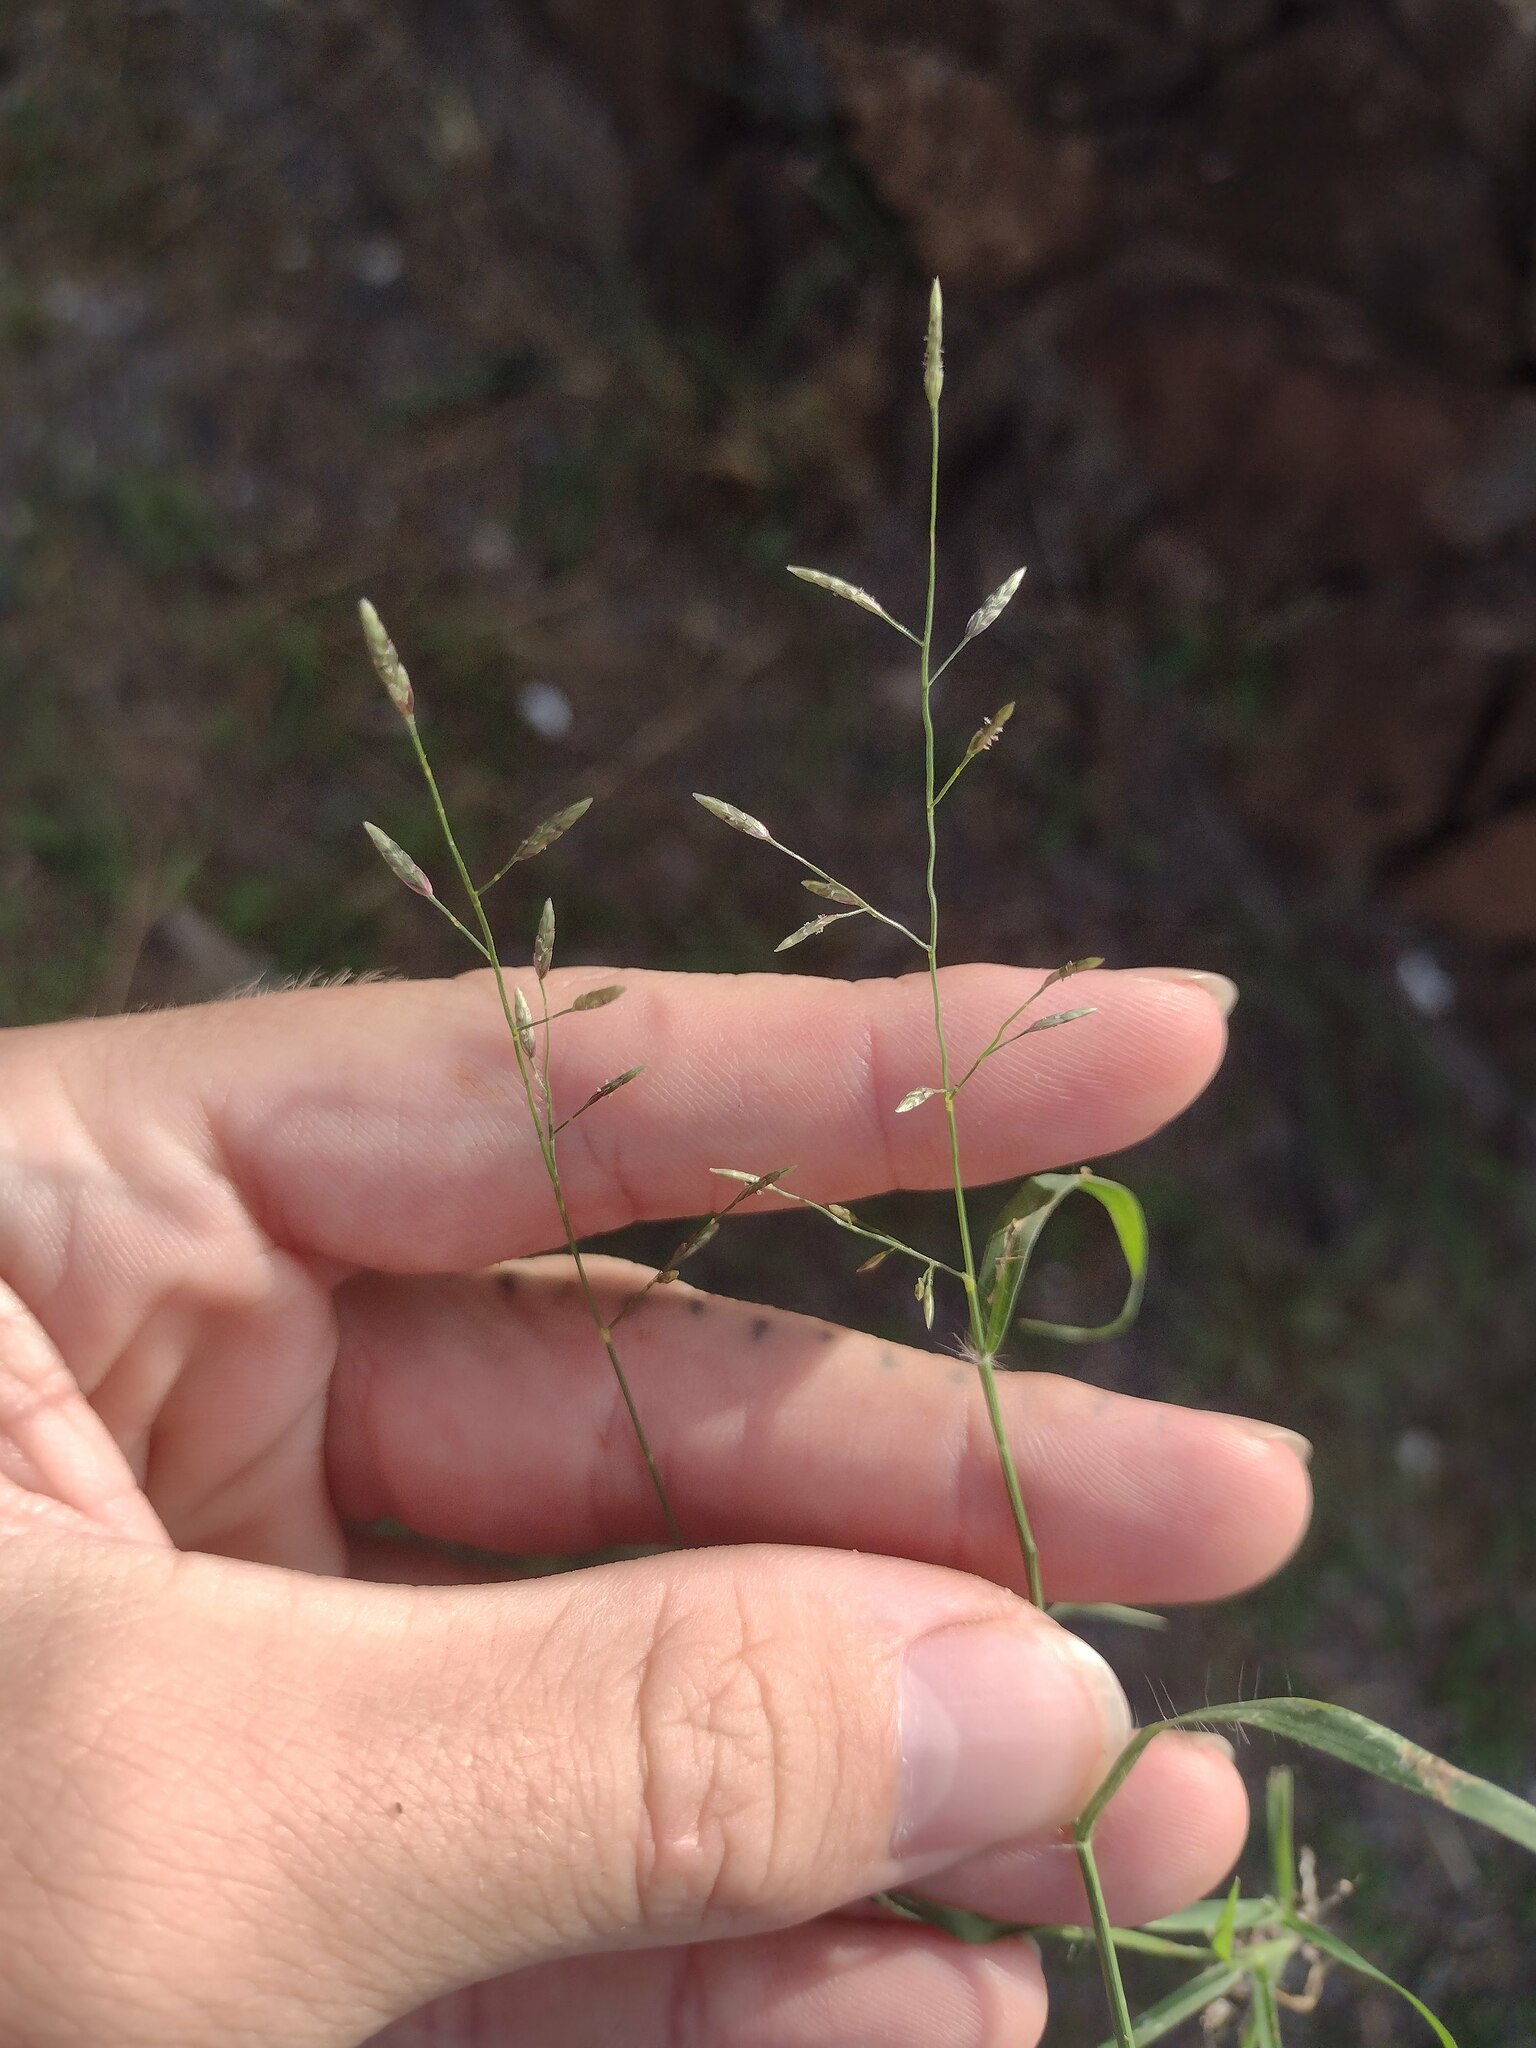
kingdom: Plantae
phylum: Tracheophyta
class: Liliopsida
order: Poales
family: Poaceae
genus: Eragrostis
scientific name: Eragrostis barrelieri
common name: Mediterranean lovegrass
